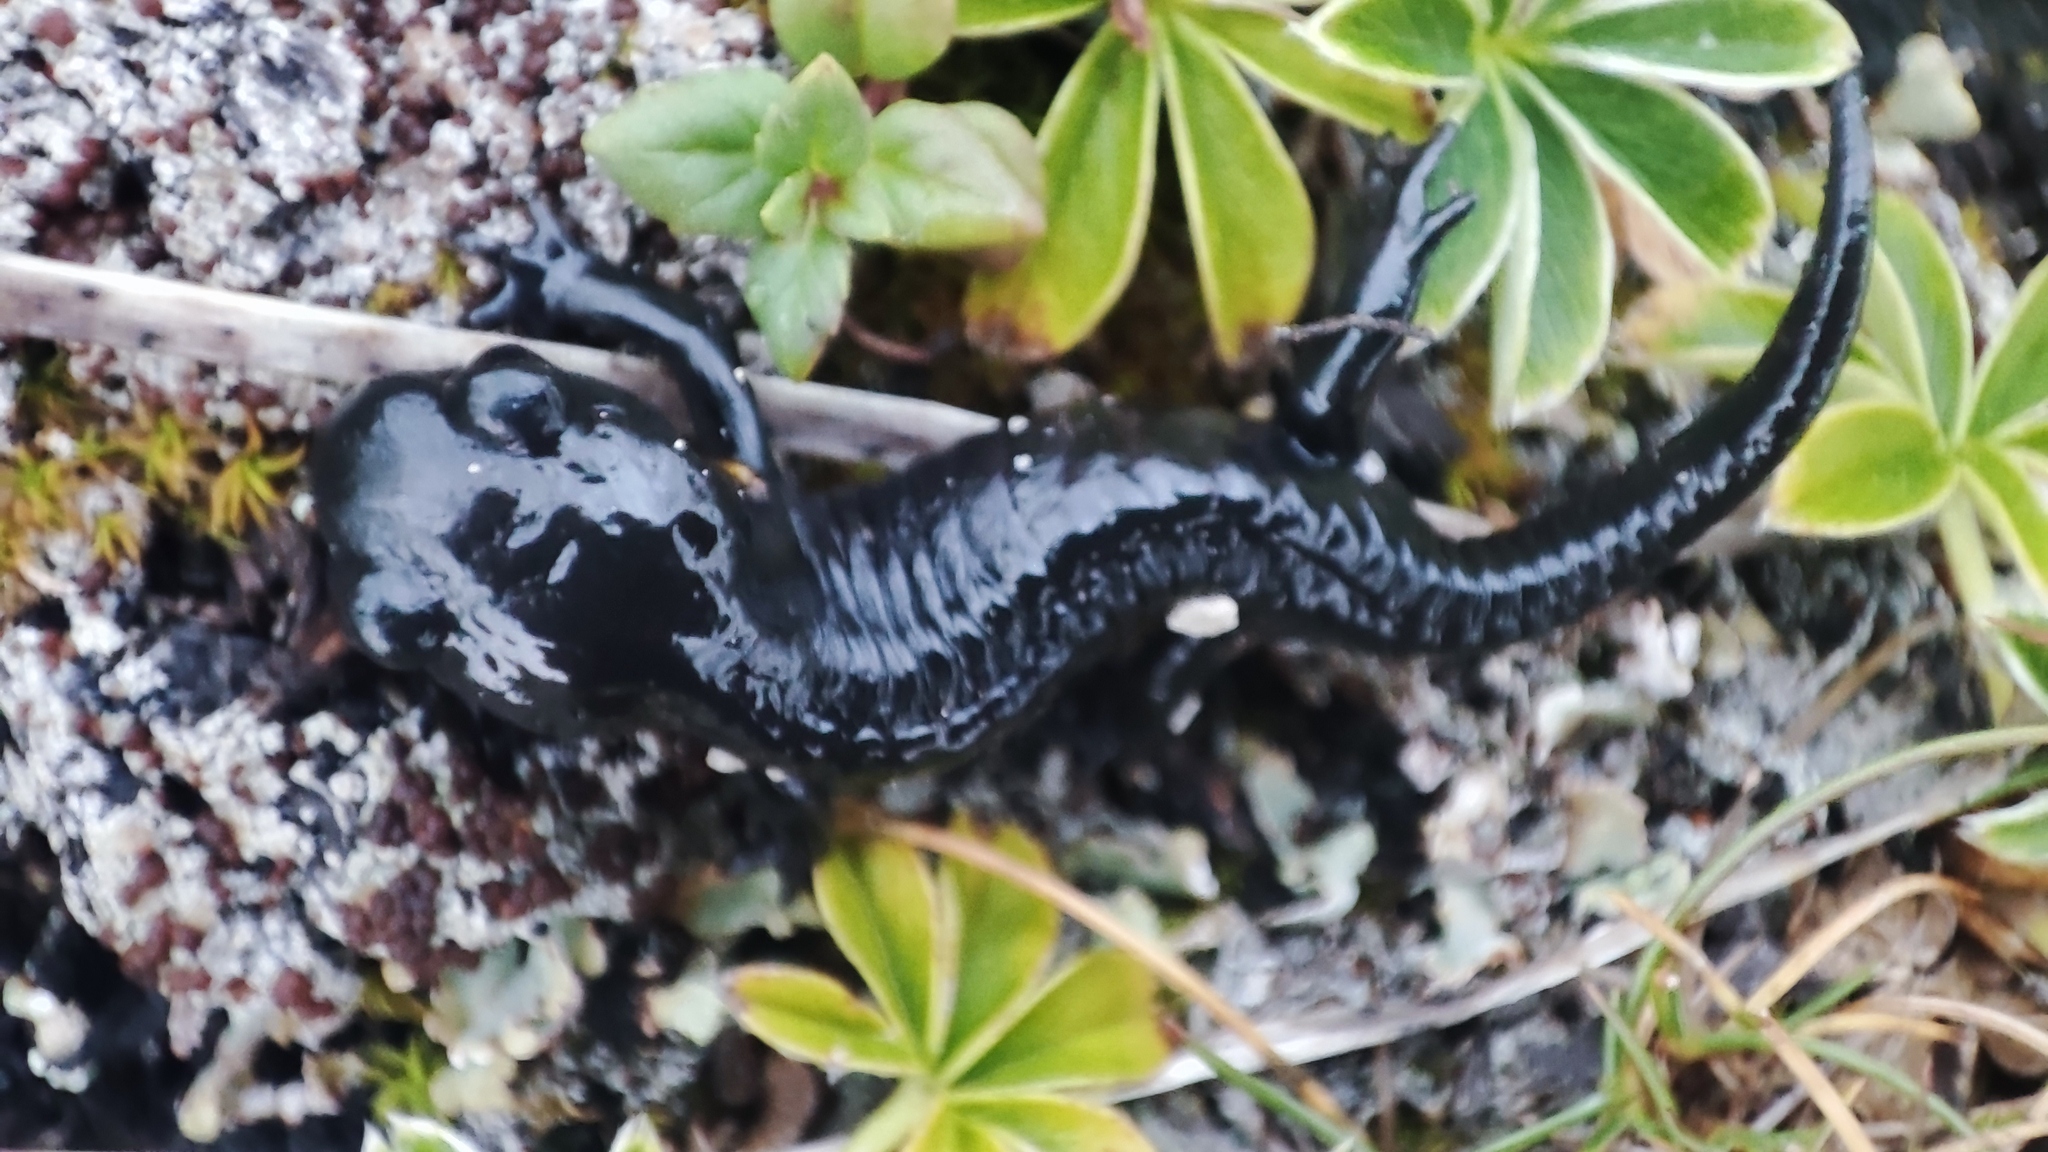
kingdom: Animalia
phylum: Chordata
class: Amphibia
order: Caudata
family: Salamandridae
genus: Salamandra
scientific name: Salamandra atra
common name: Alpine salamander
